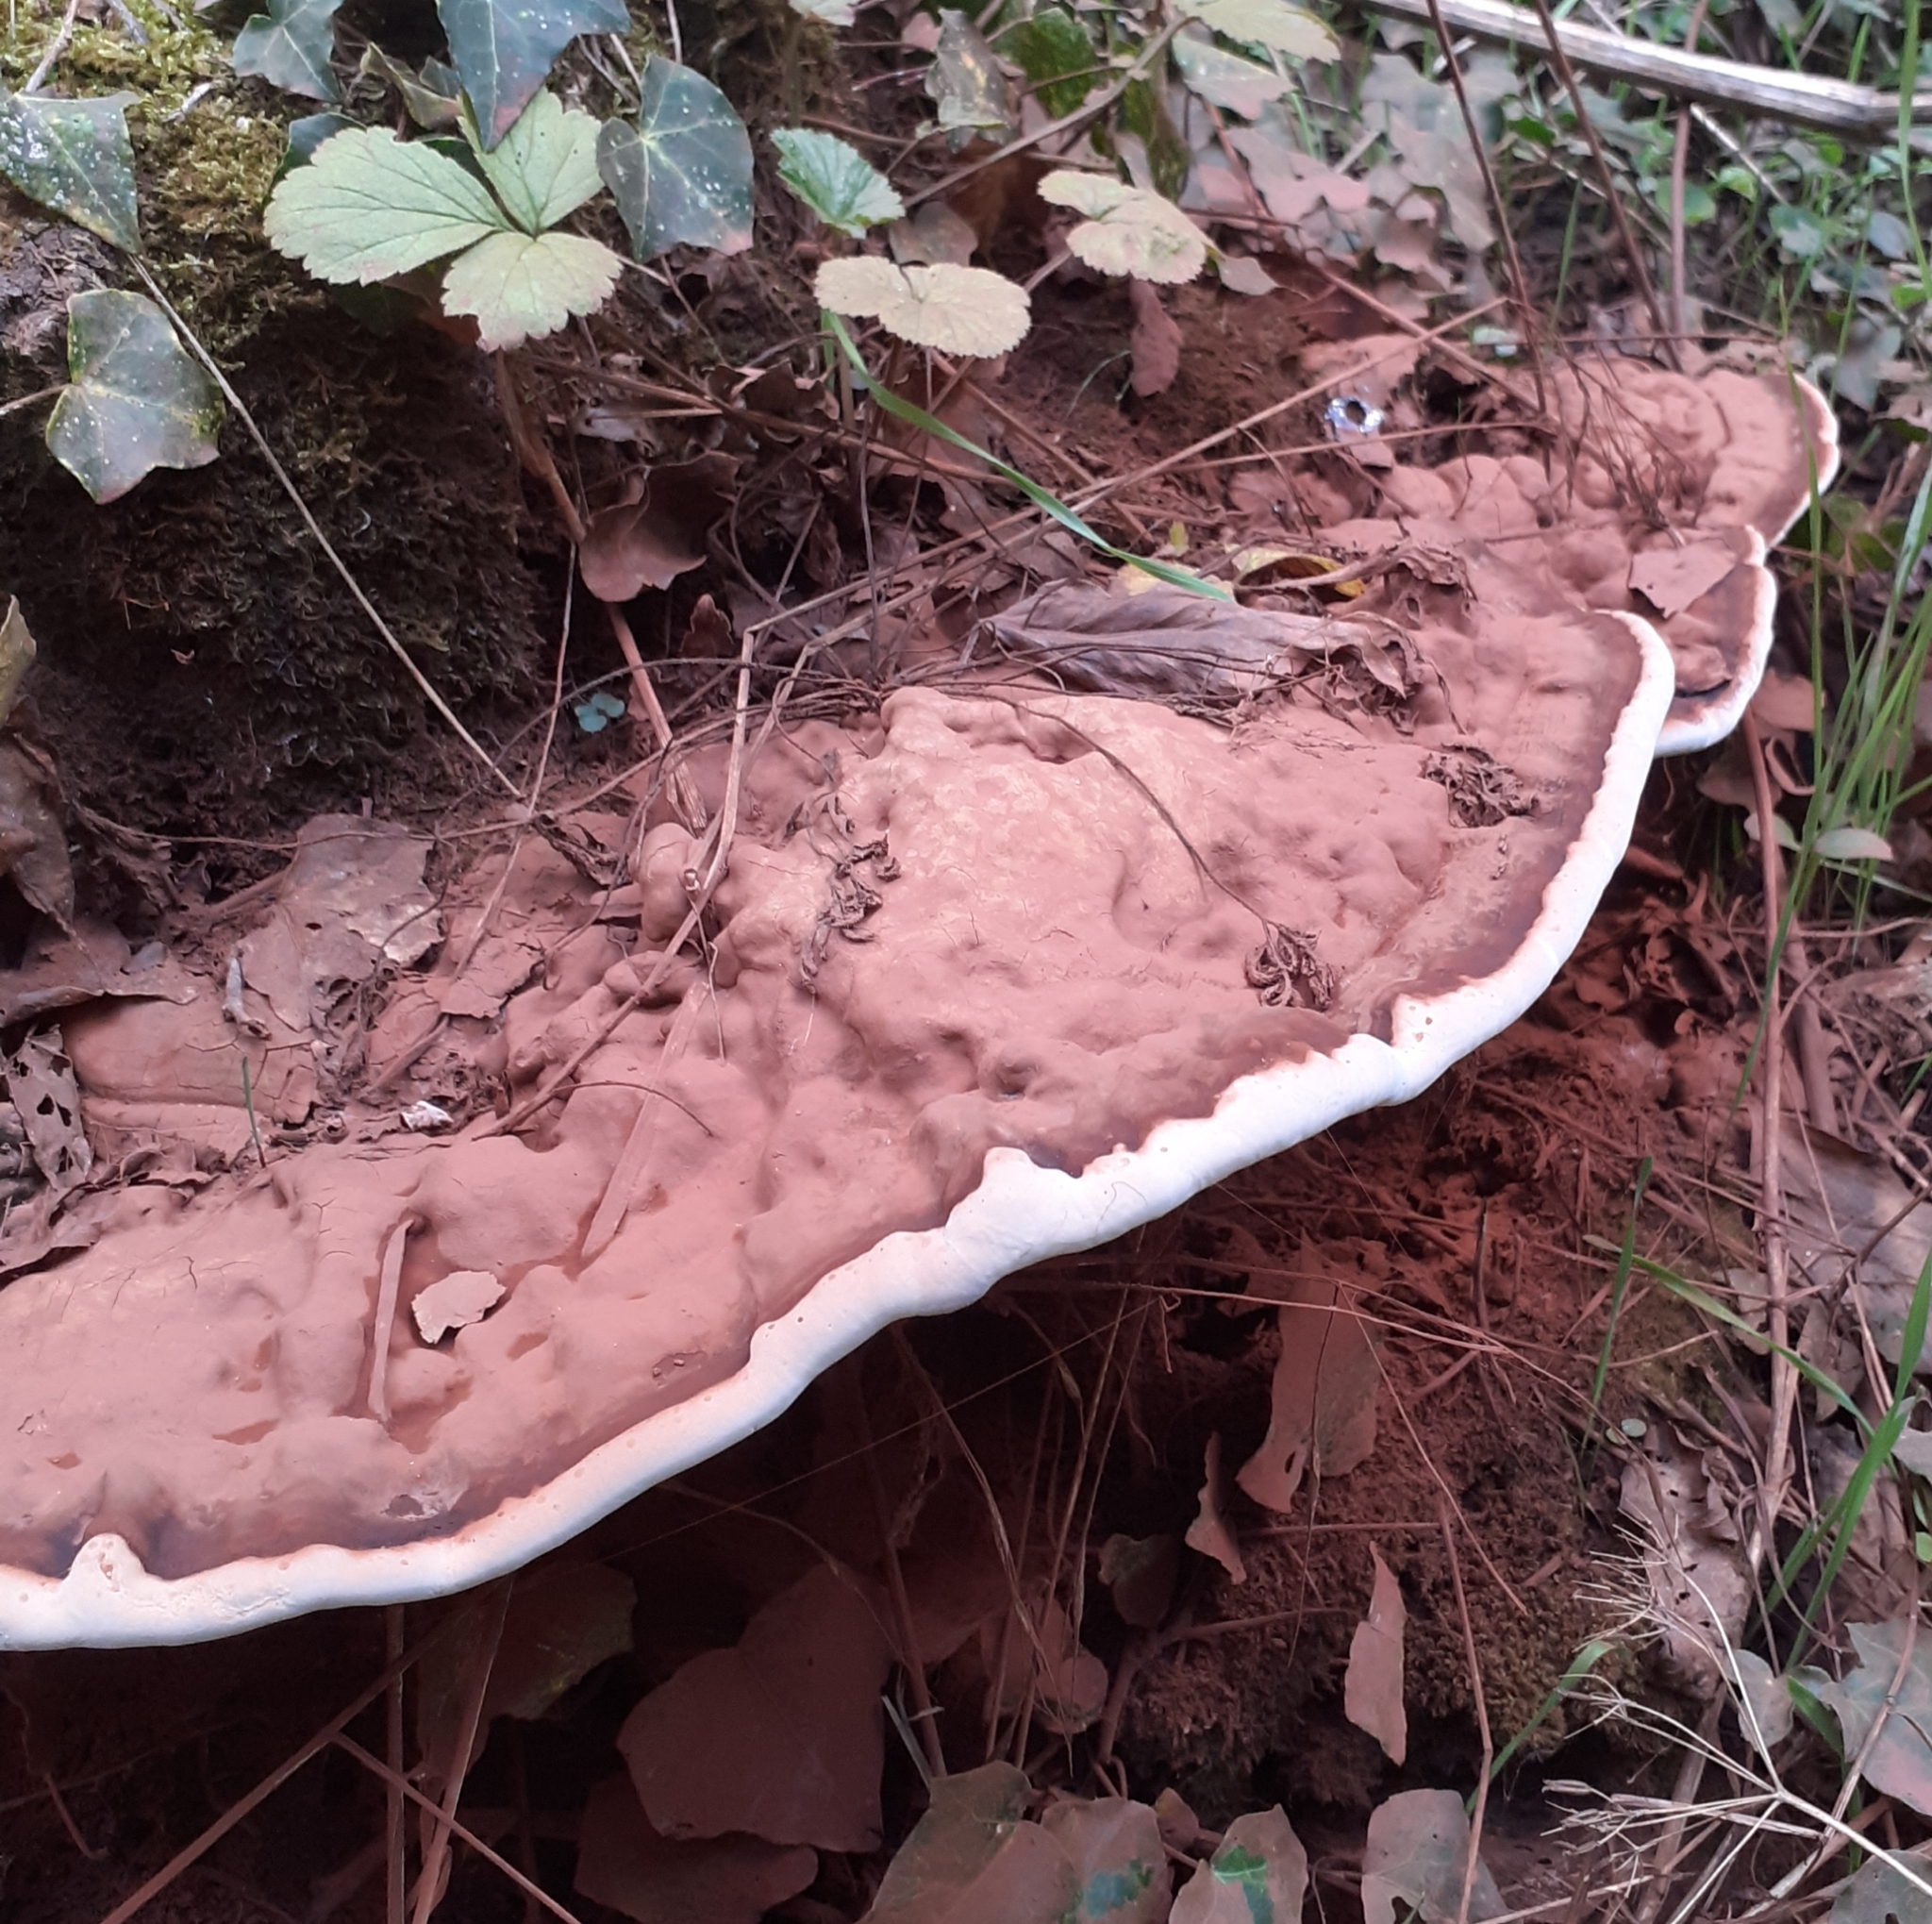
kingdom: Fungi
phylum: Basidiomycota
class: Agaricomycetes
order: Polyporales
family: Polyporaceae
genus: Ganoderma
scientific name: Ganoderma applanatum
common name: Artist's bracket
